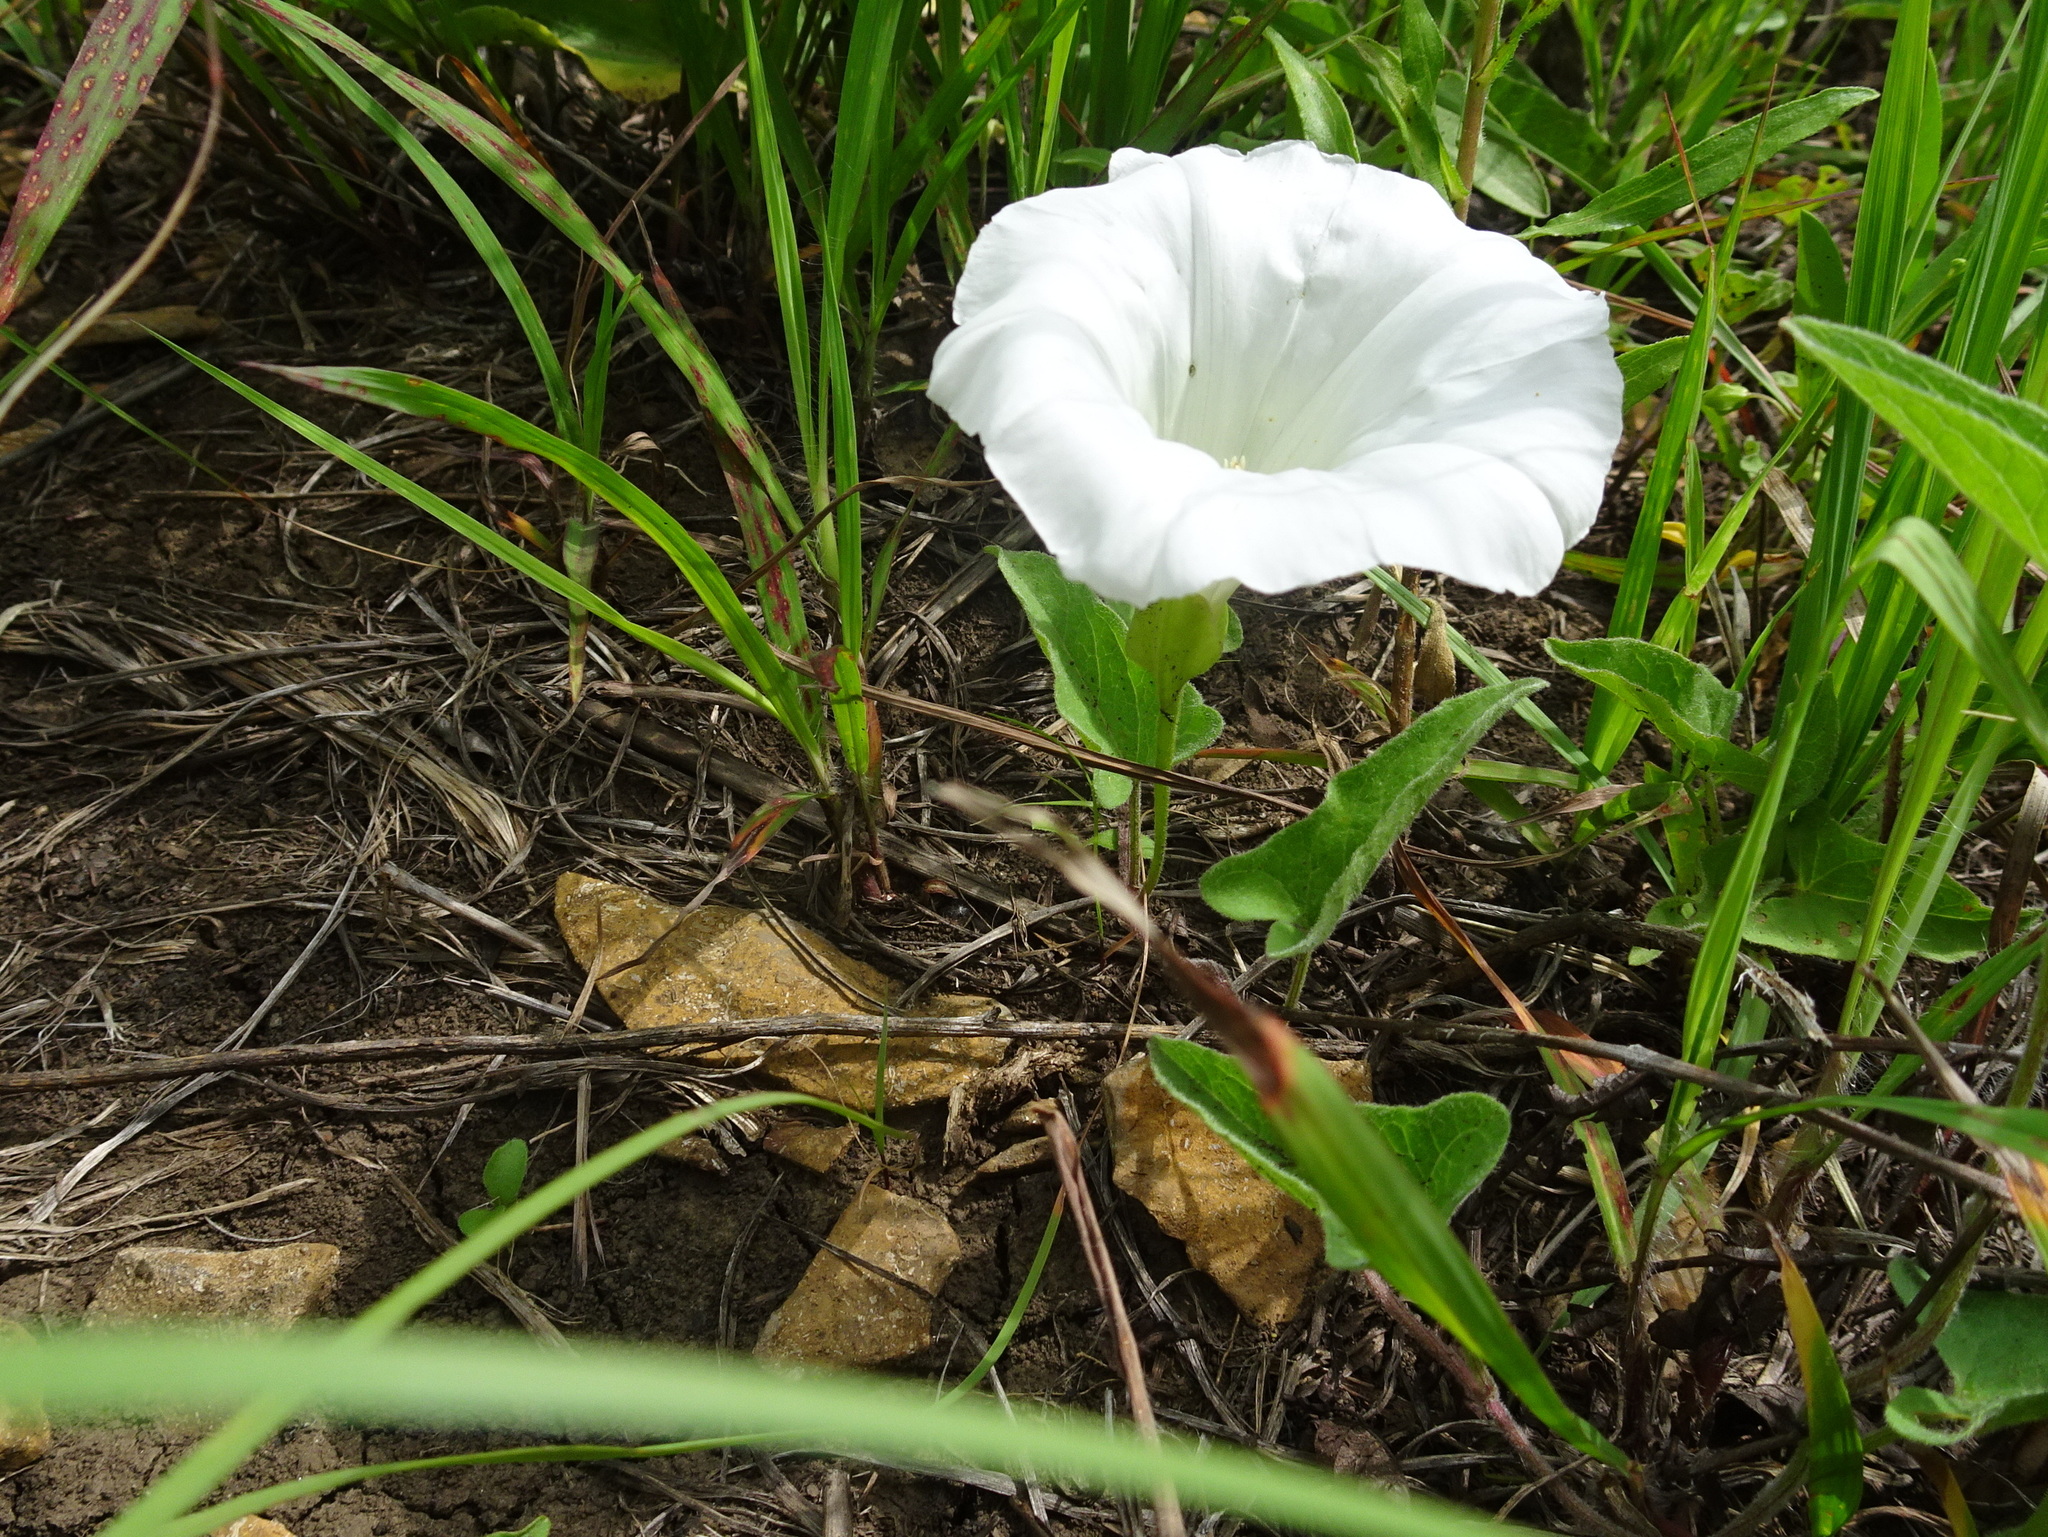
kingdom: Plantae
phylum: Tracheophyta
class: Magnoliopsida
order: Solanales
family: Convolvulaceae
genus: Calystegia
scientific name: Calystegia macounii
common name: Macoun's bindweed
